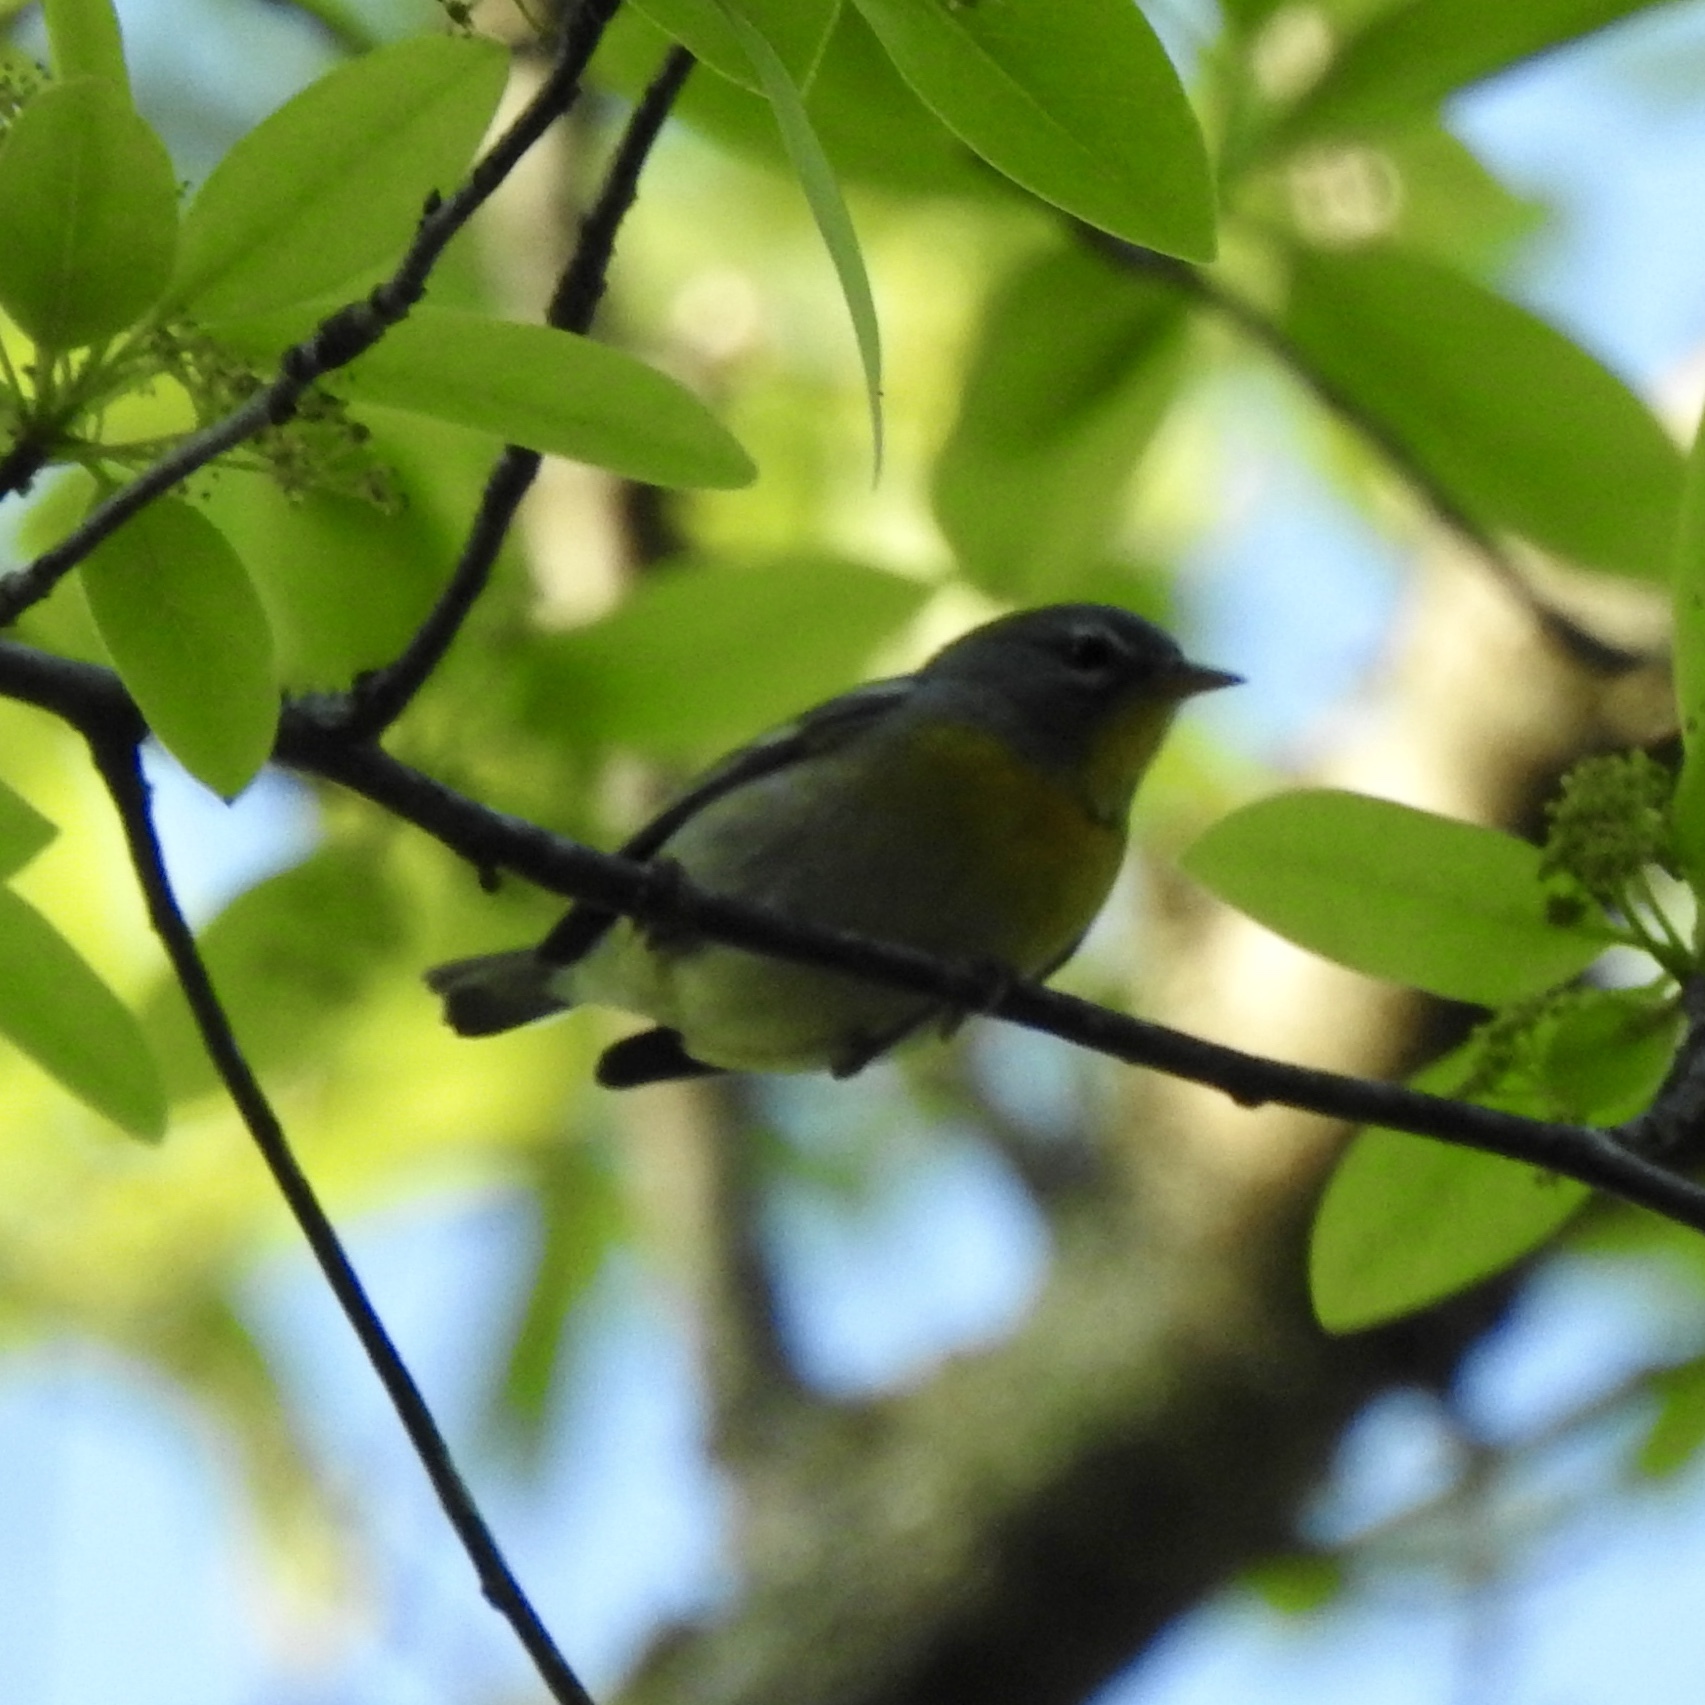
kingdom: Animalia
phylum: Chordata
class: Aves
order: Passeriformes
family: Parulidae
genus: Setophaga
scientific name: Setophaga americana
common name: Northern parula
